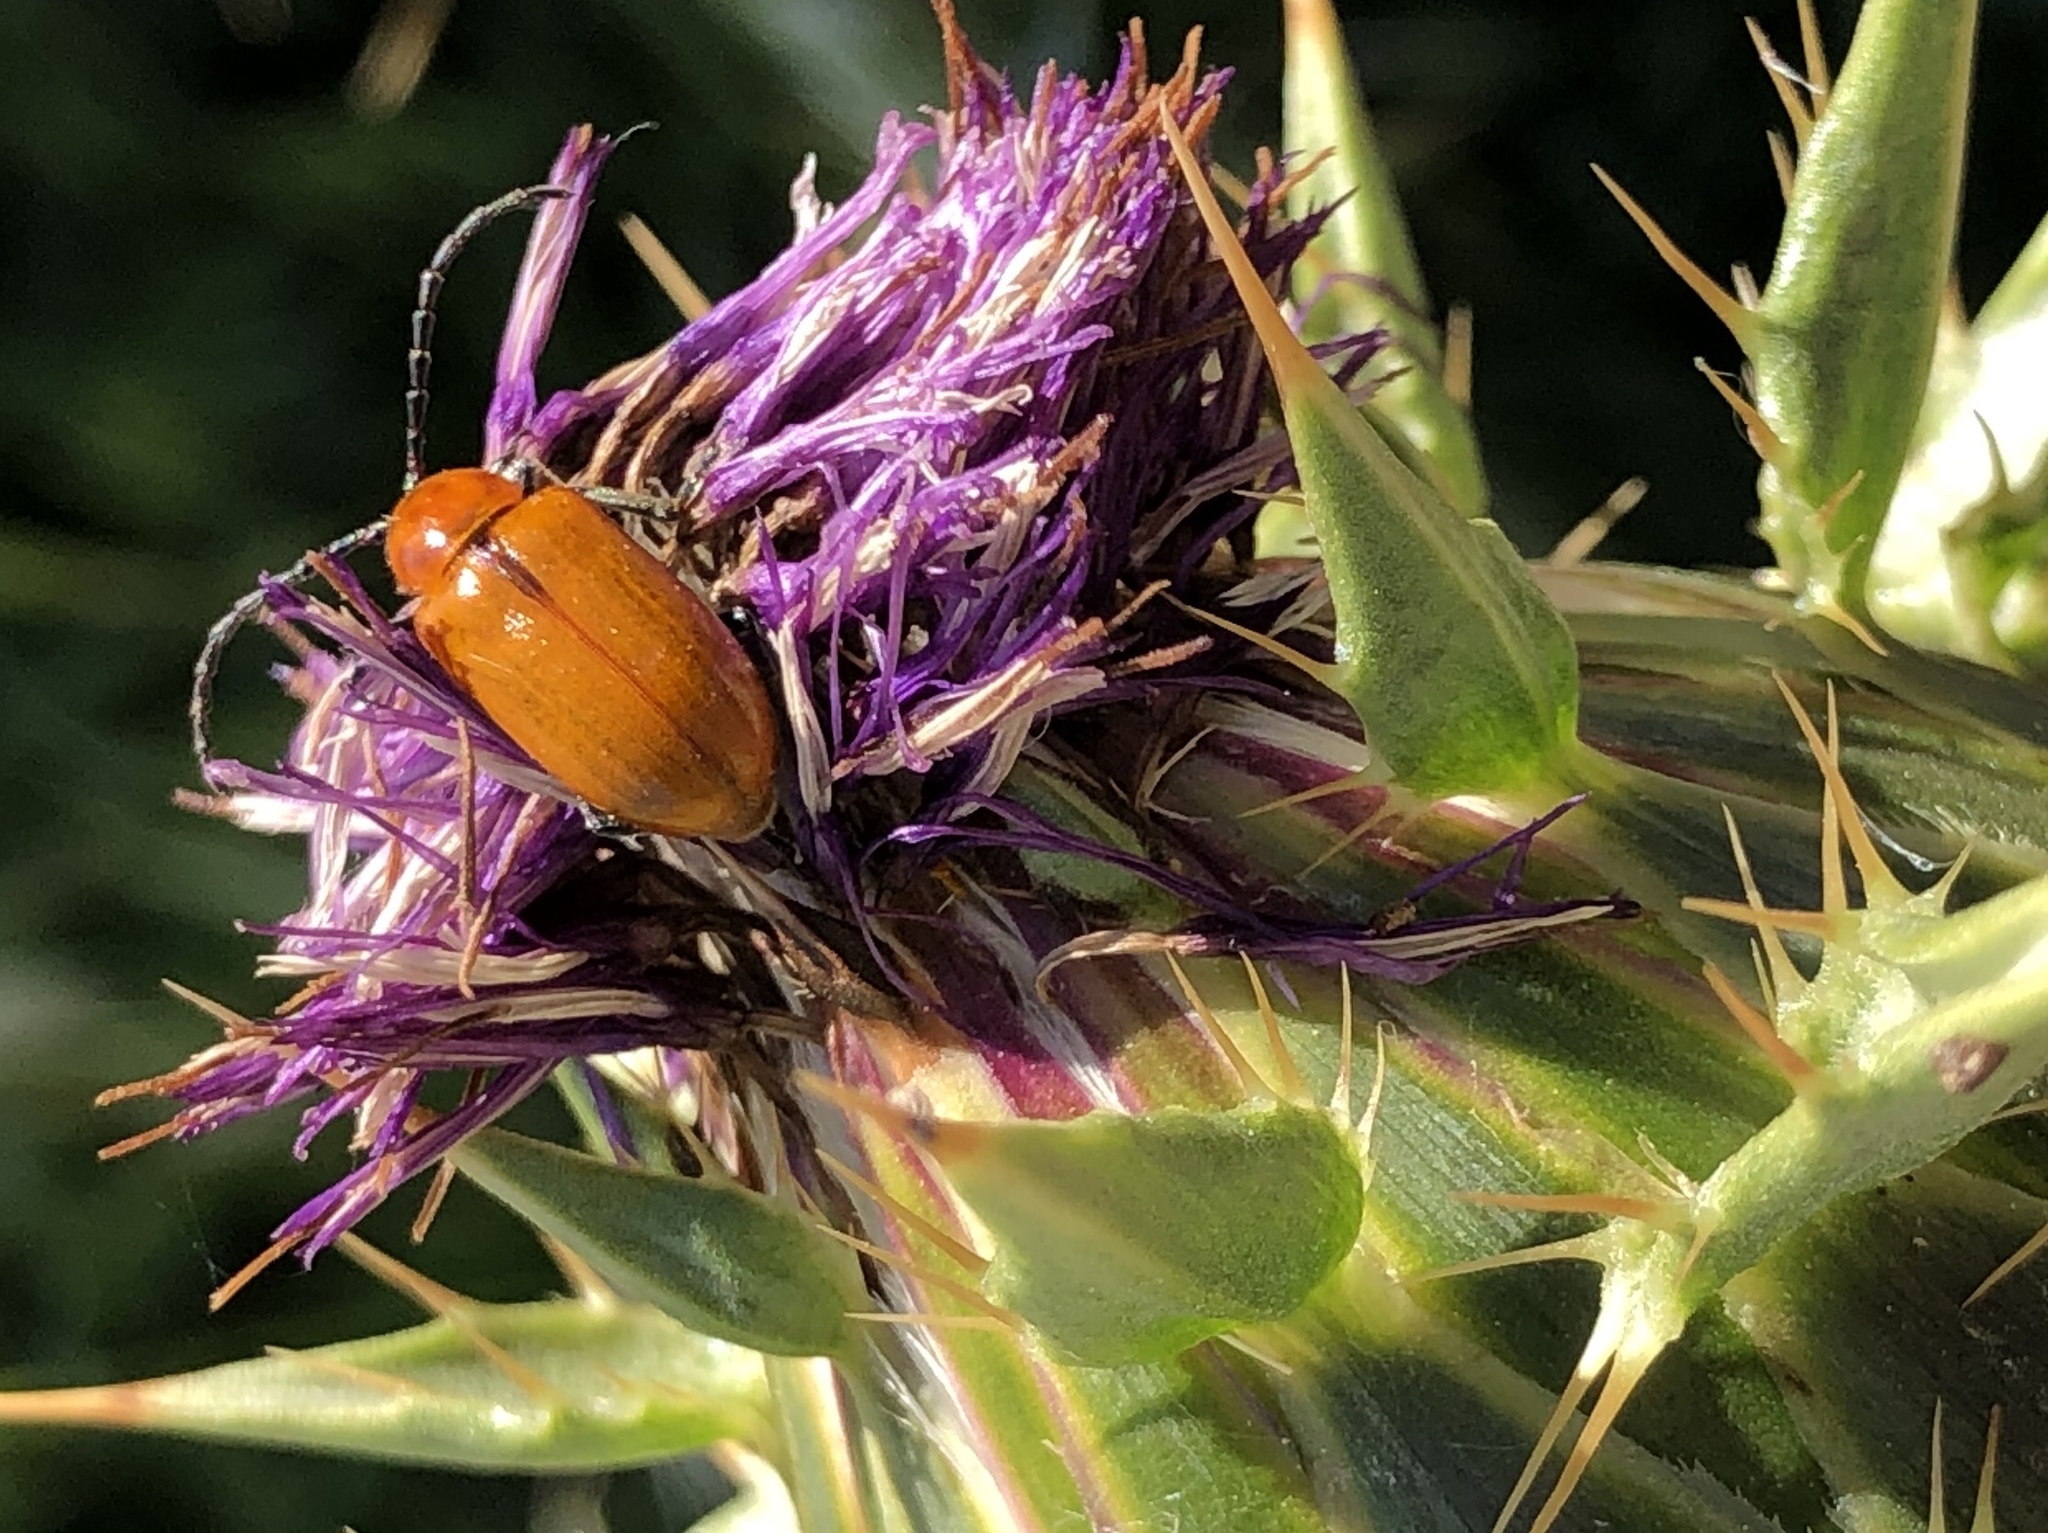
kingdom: Animalia
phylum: Arthropoda
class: Insecta
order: Coleoptera
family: Chrysomelidae
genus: Exosoma
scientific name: Exosoma lusitanicum
